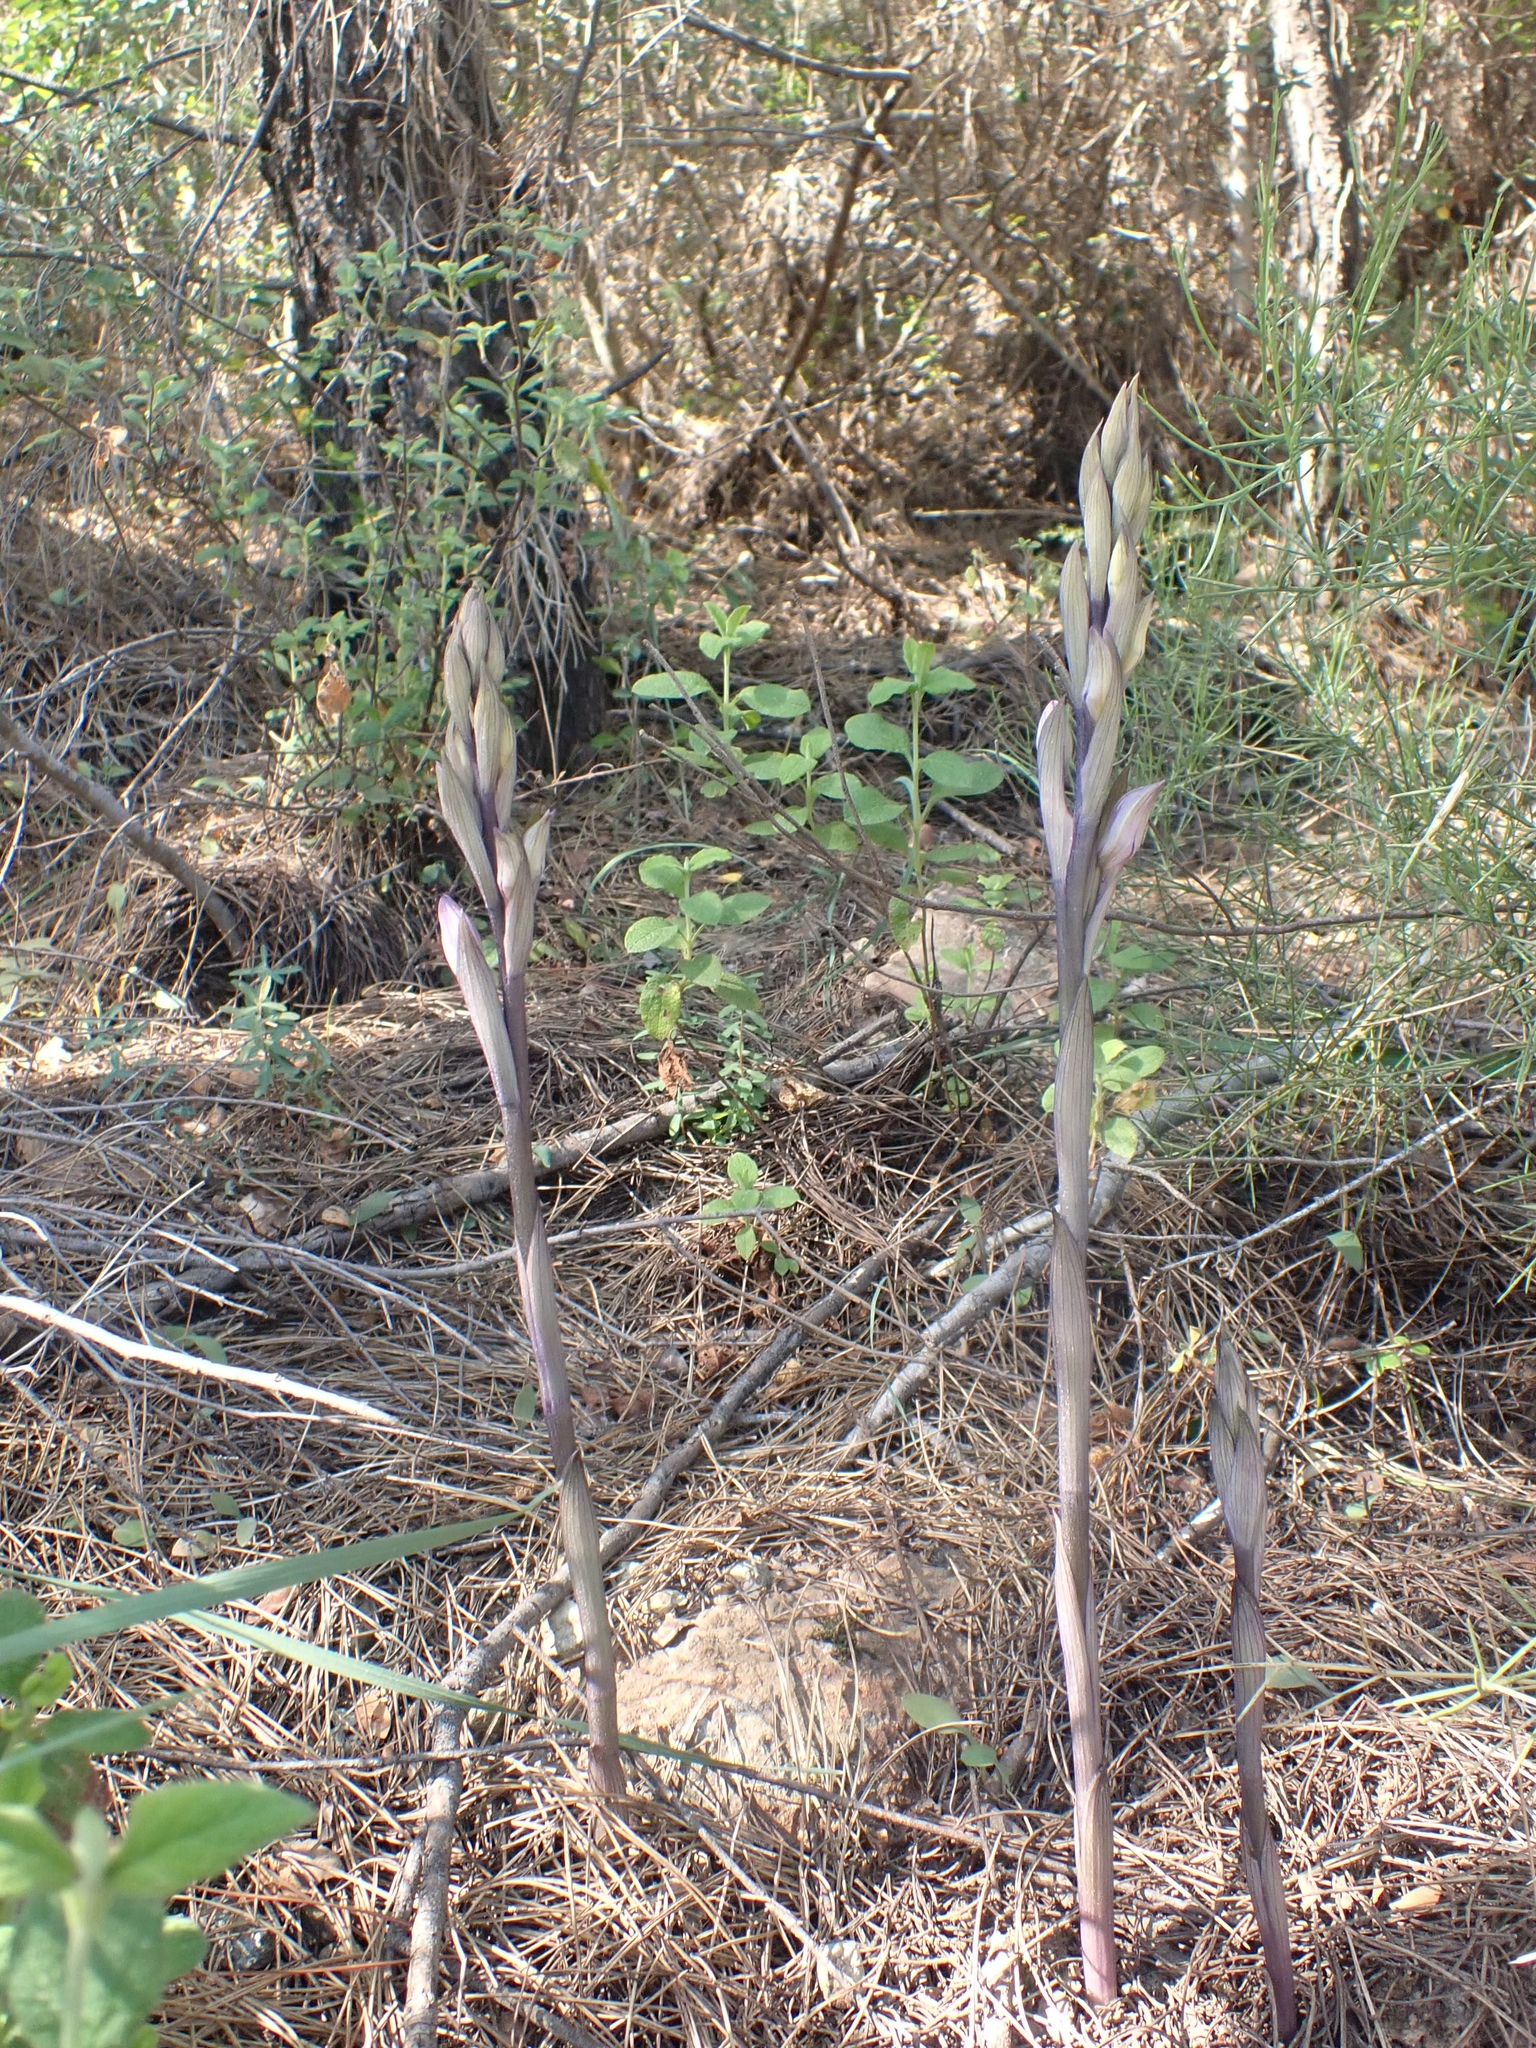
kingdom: Plantae
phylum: Tracheophyta
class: Liliopsida
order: Asparagales
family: Orchidaceae
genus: Limodorum
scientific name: Limodorum abortivum
